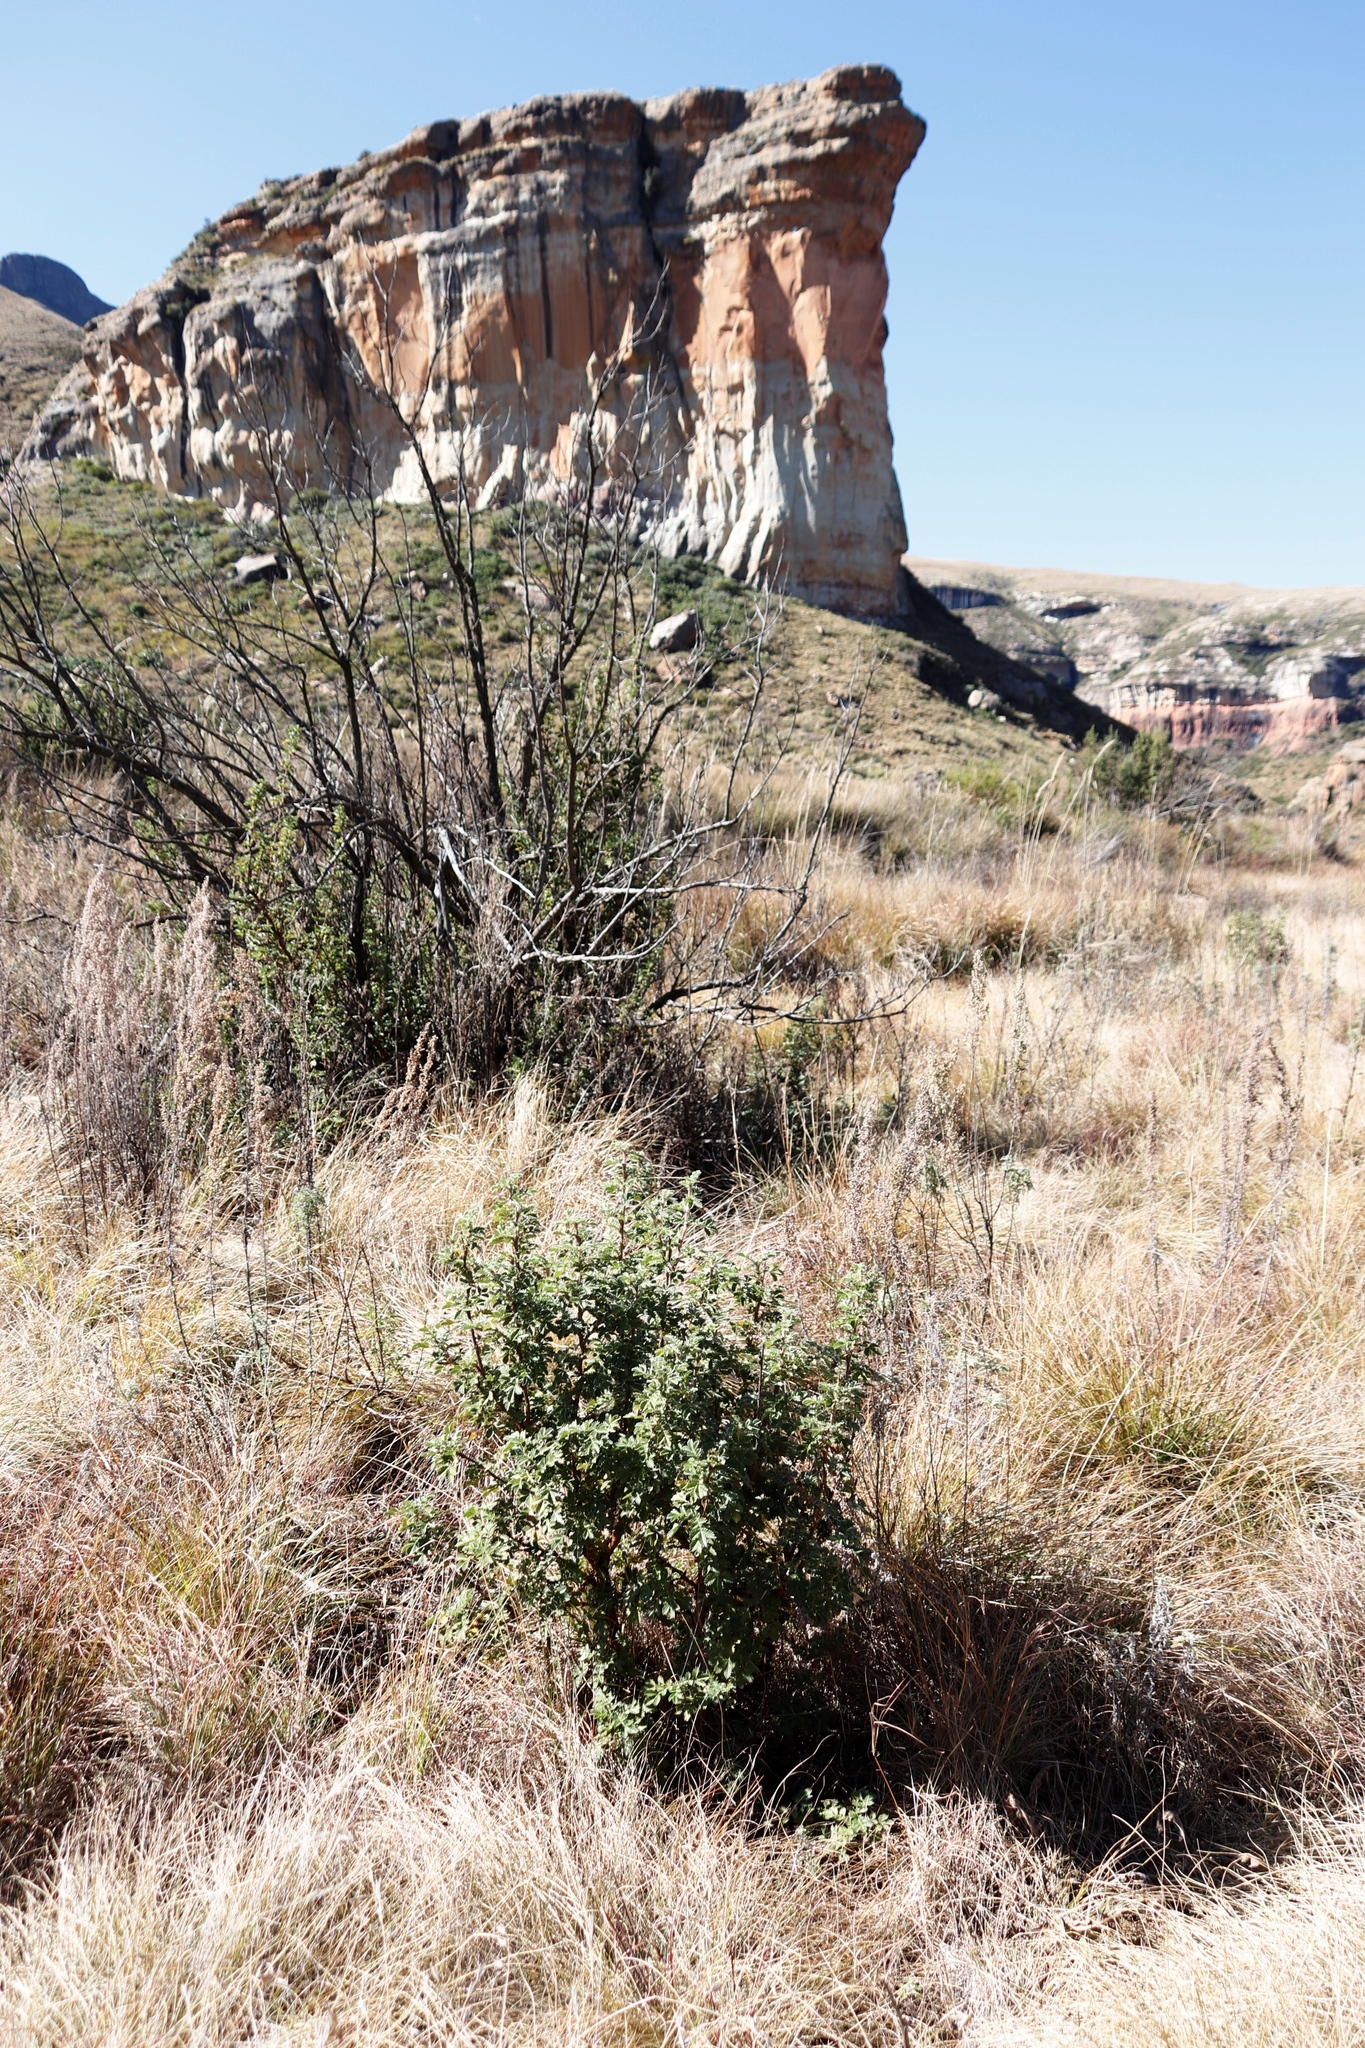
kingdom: Plantae
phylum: Tracheophyta
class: Magnoliopsida
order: Rosales
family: Rosaceae
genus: Leucosidea
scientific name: Leucosidea sericea
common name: Oldwood
